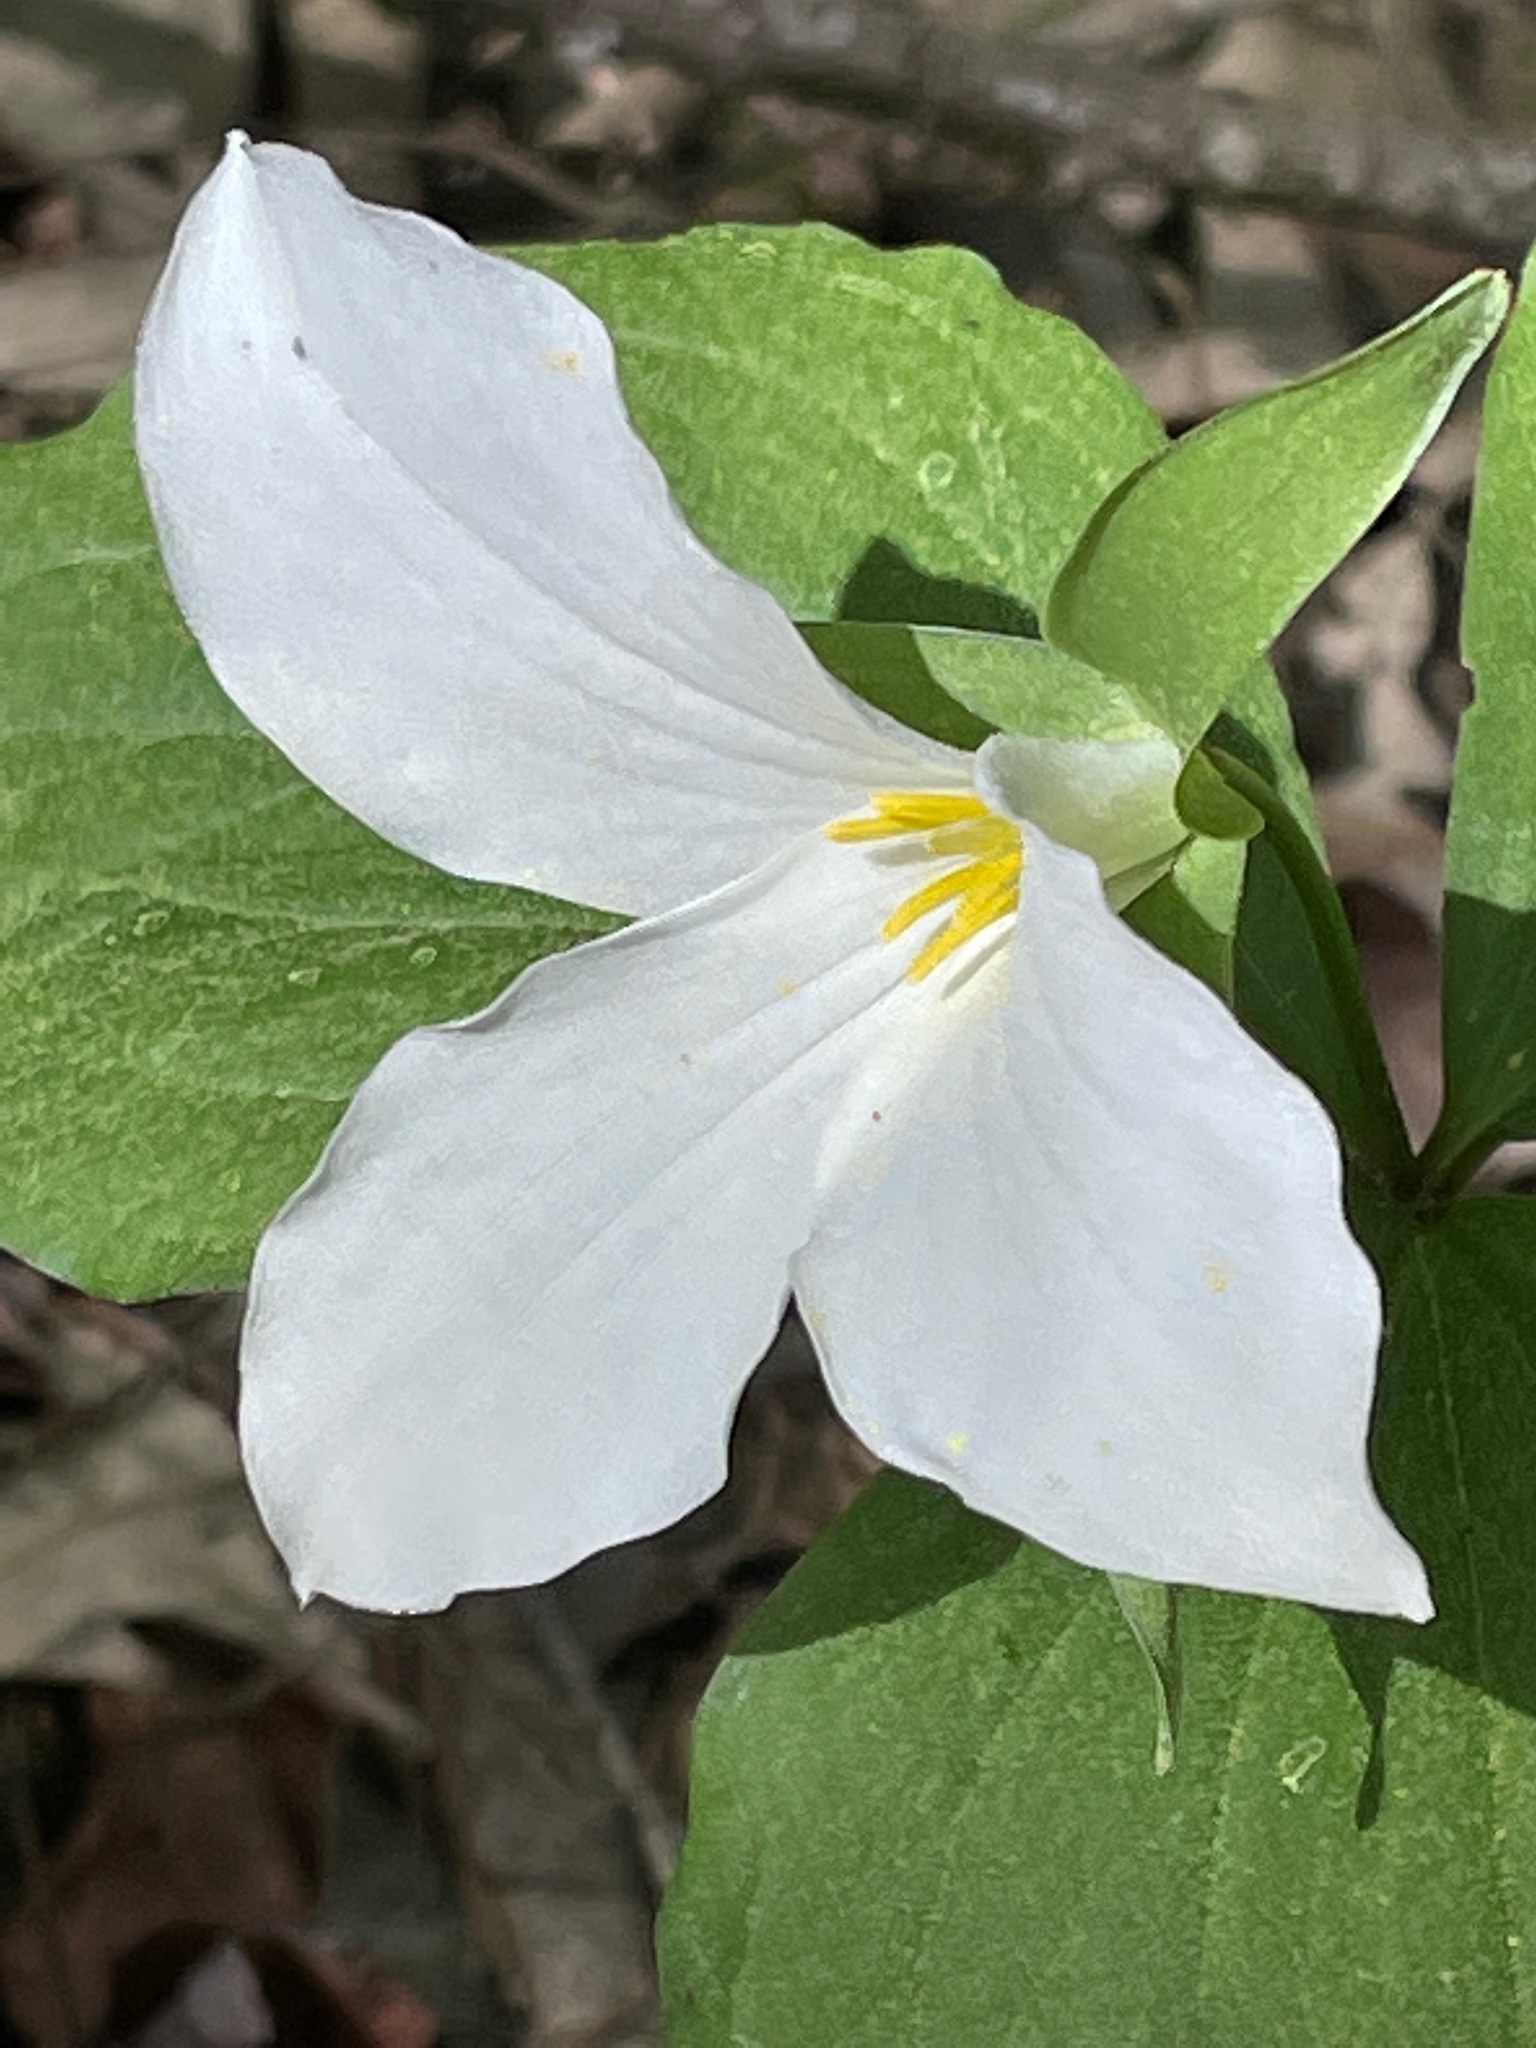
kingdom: Plantae
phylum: Tracheophyta
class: Liliopsida
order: Liliales
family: Melanthiaceae
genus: Trillium
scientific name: Trillium grandiflorum
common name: Great white trillium
